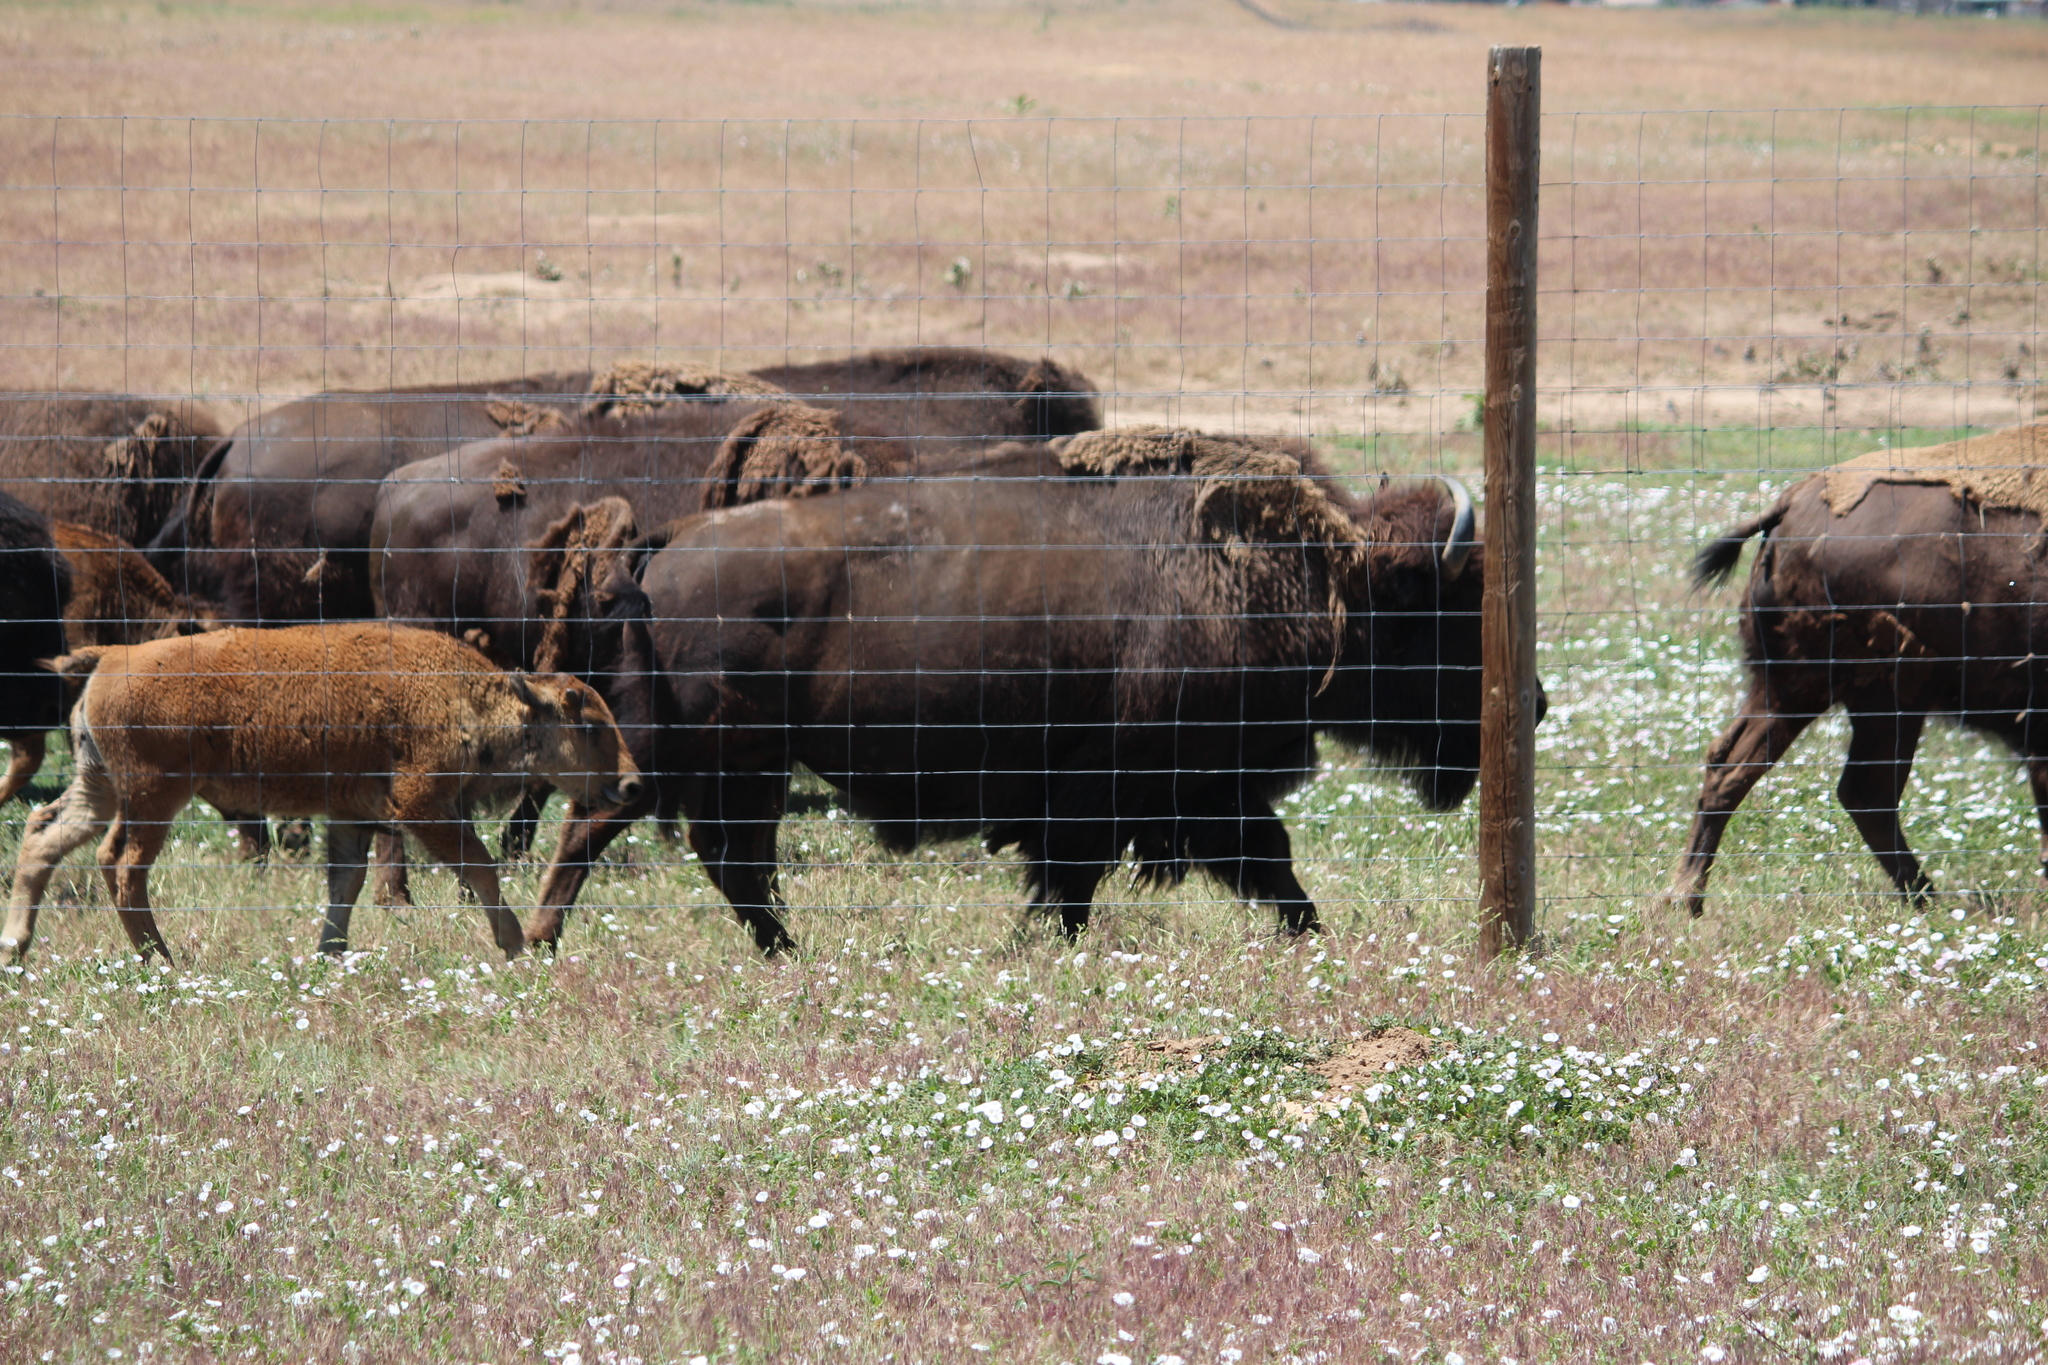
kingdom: Animalia
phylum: Chordata
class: Mammalia
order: Artiodactyla
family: Bovidae
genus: Bison
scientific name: Bison bison
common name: American bison
